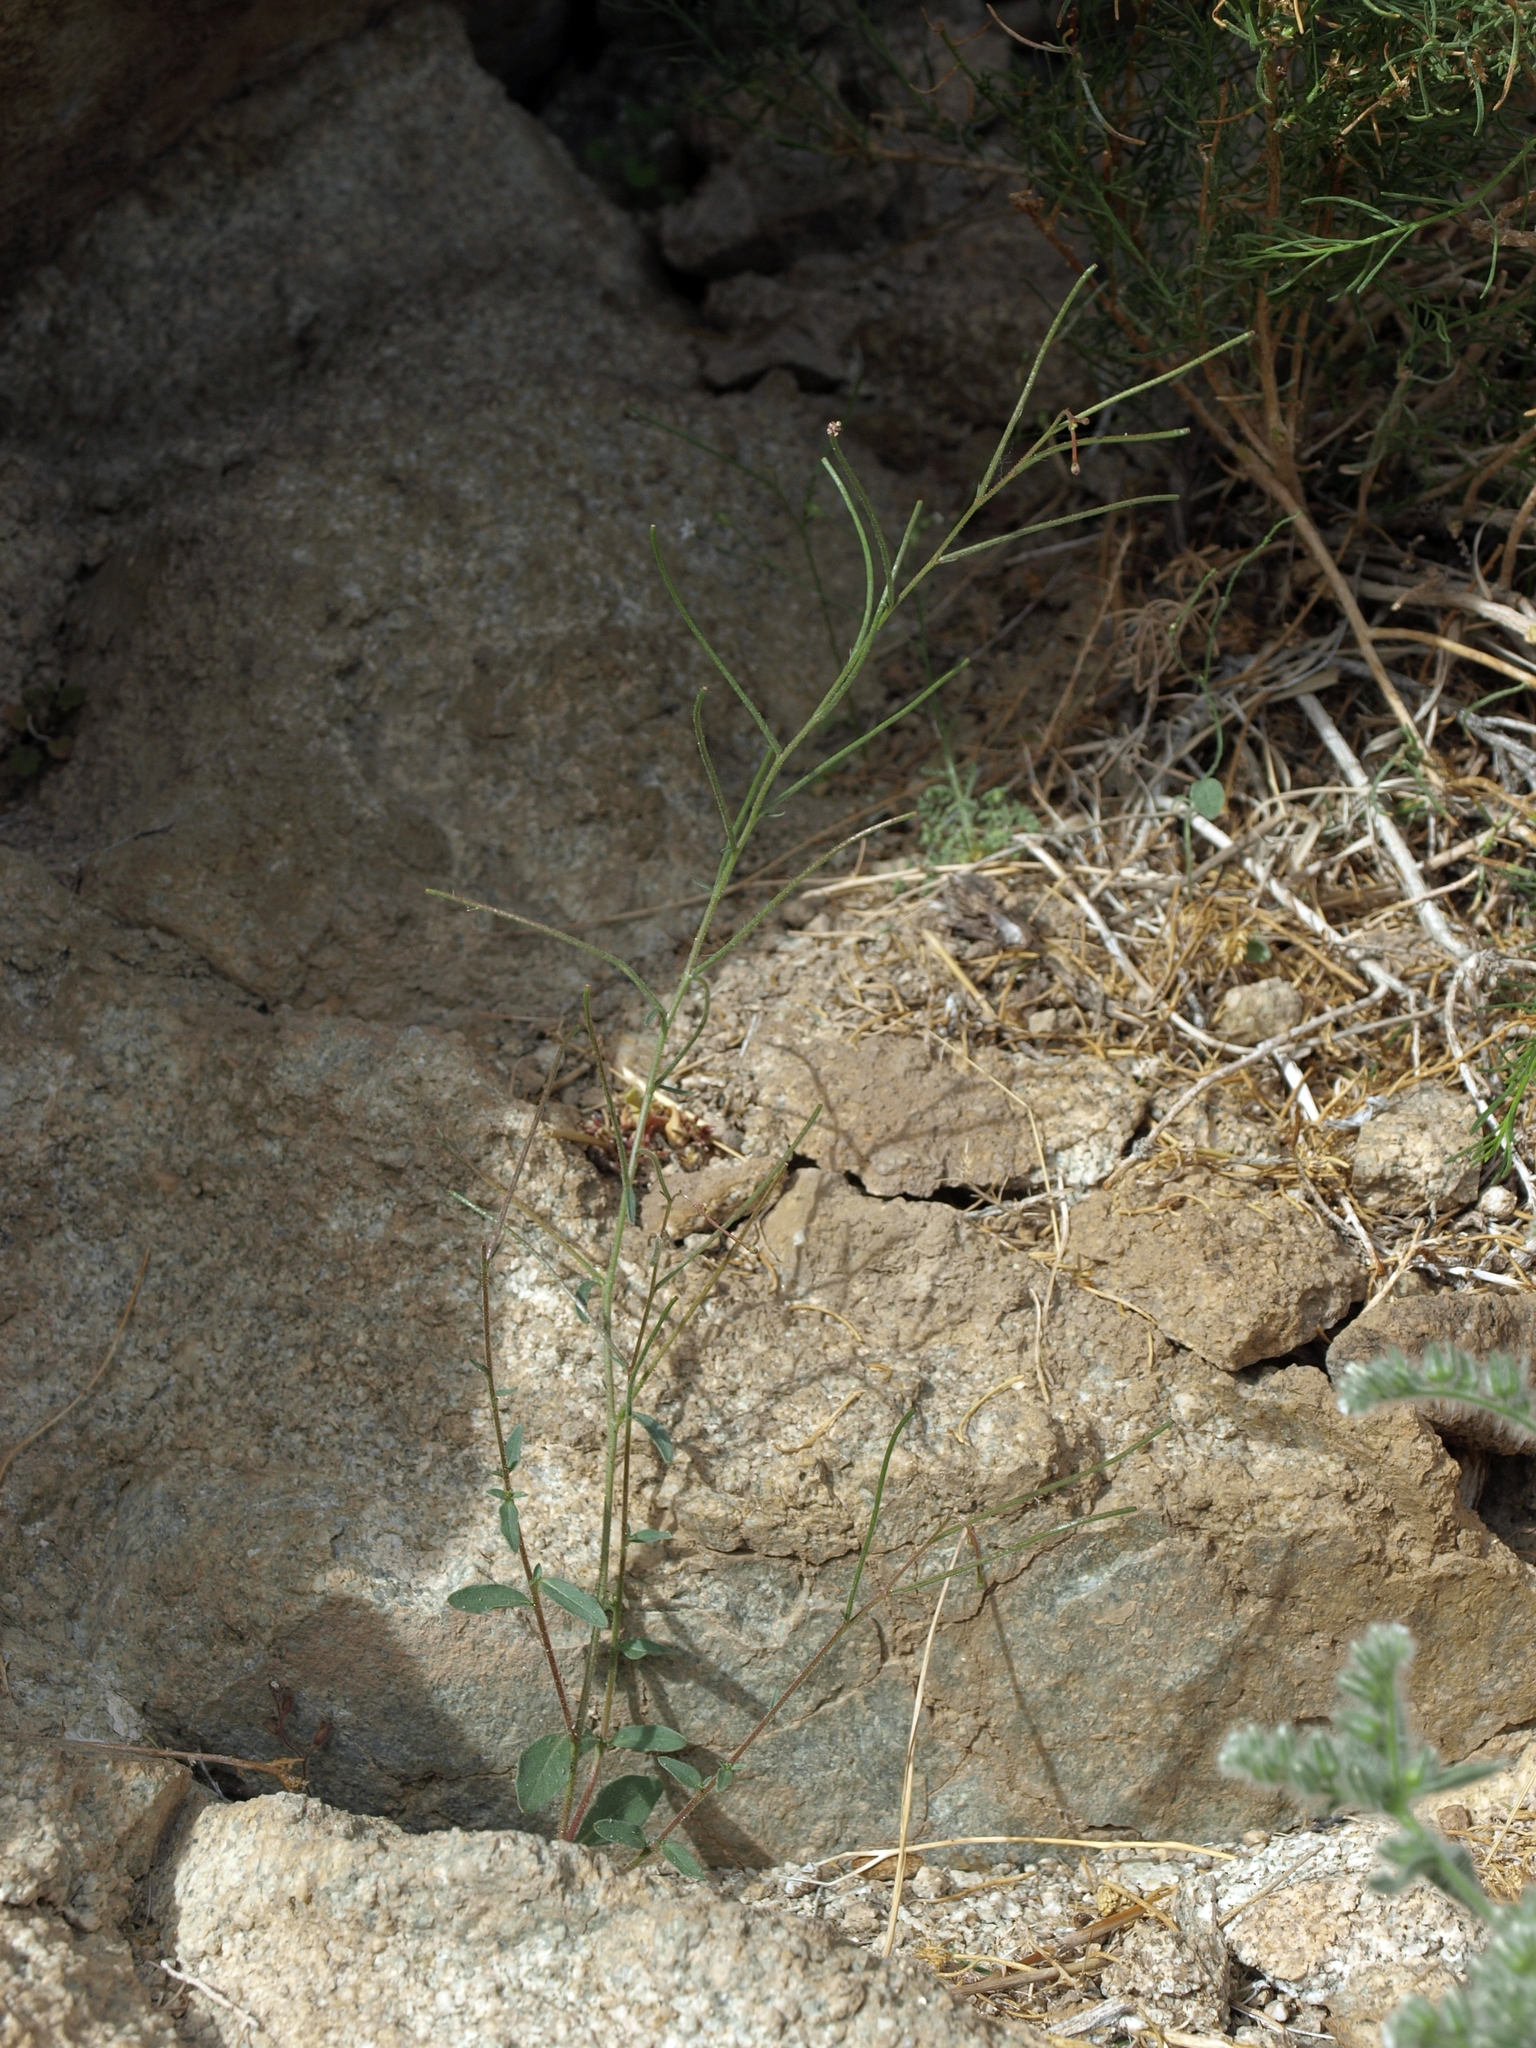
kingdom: Plantae
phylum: Tracheophyta
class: Magnoliopsida
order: Myrtales
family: Onagraceae
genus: Eremothera
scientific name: Eremothera chamaenerioides
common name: Longcapsule suncup
